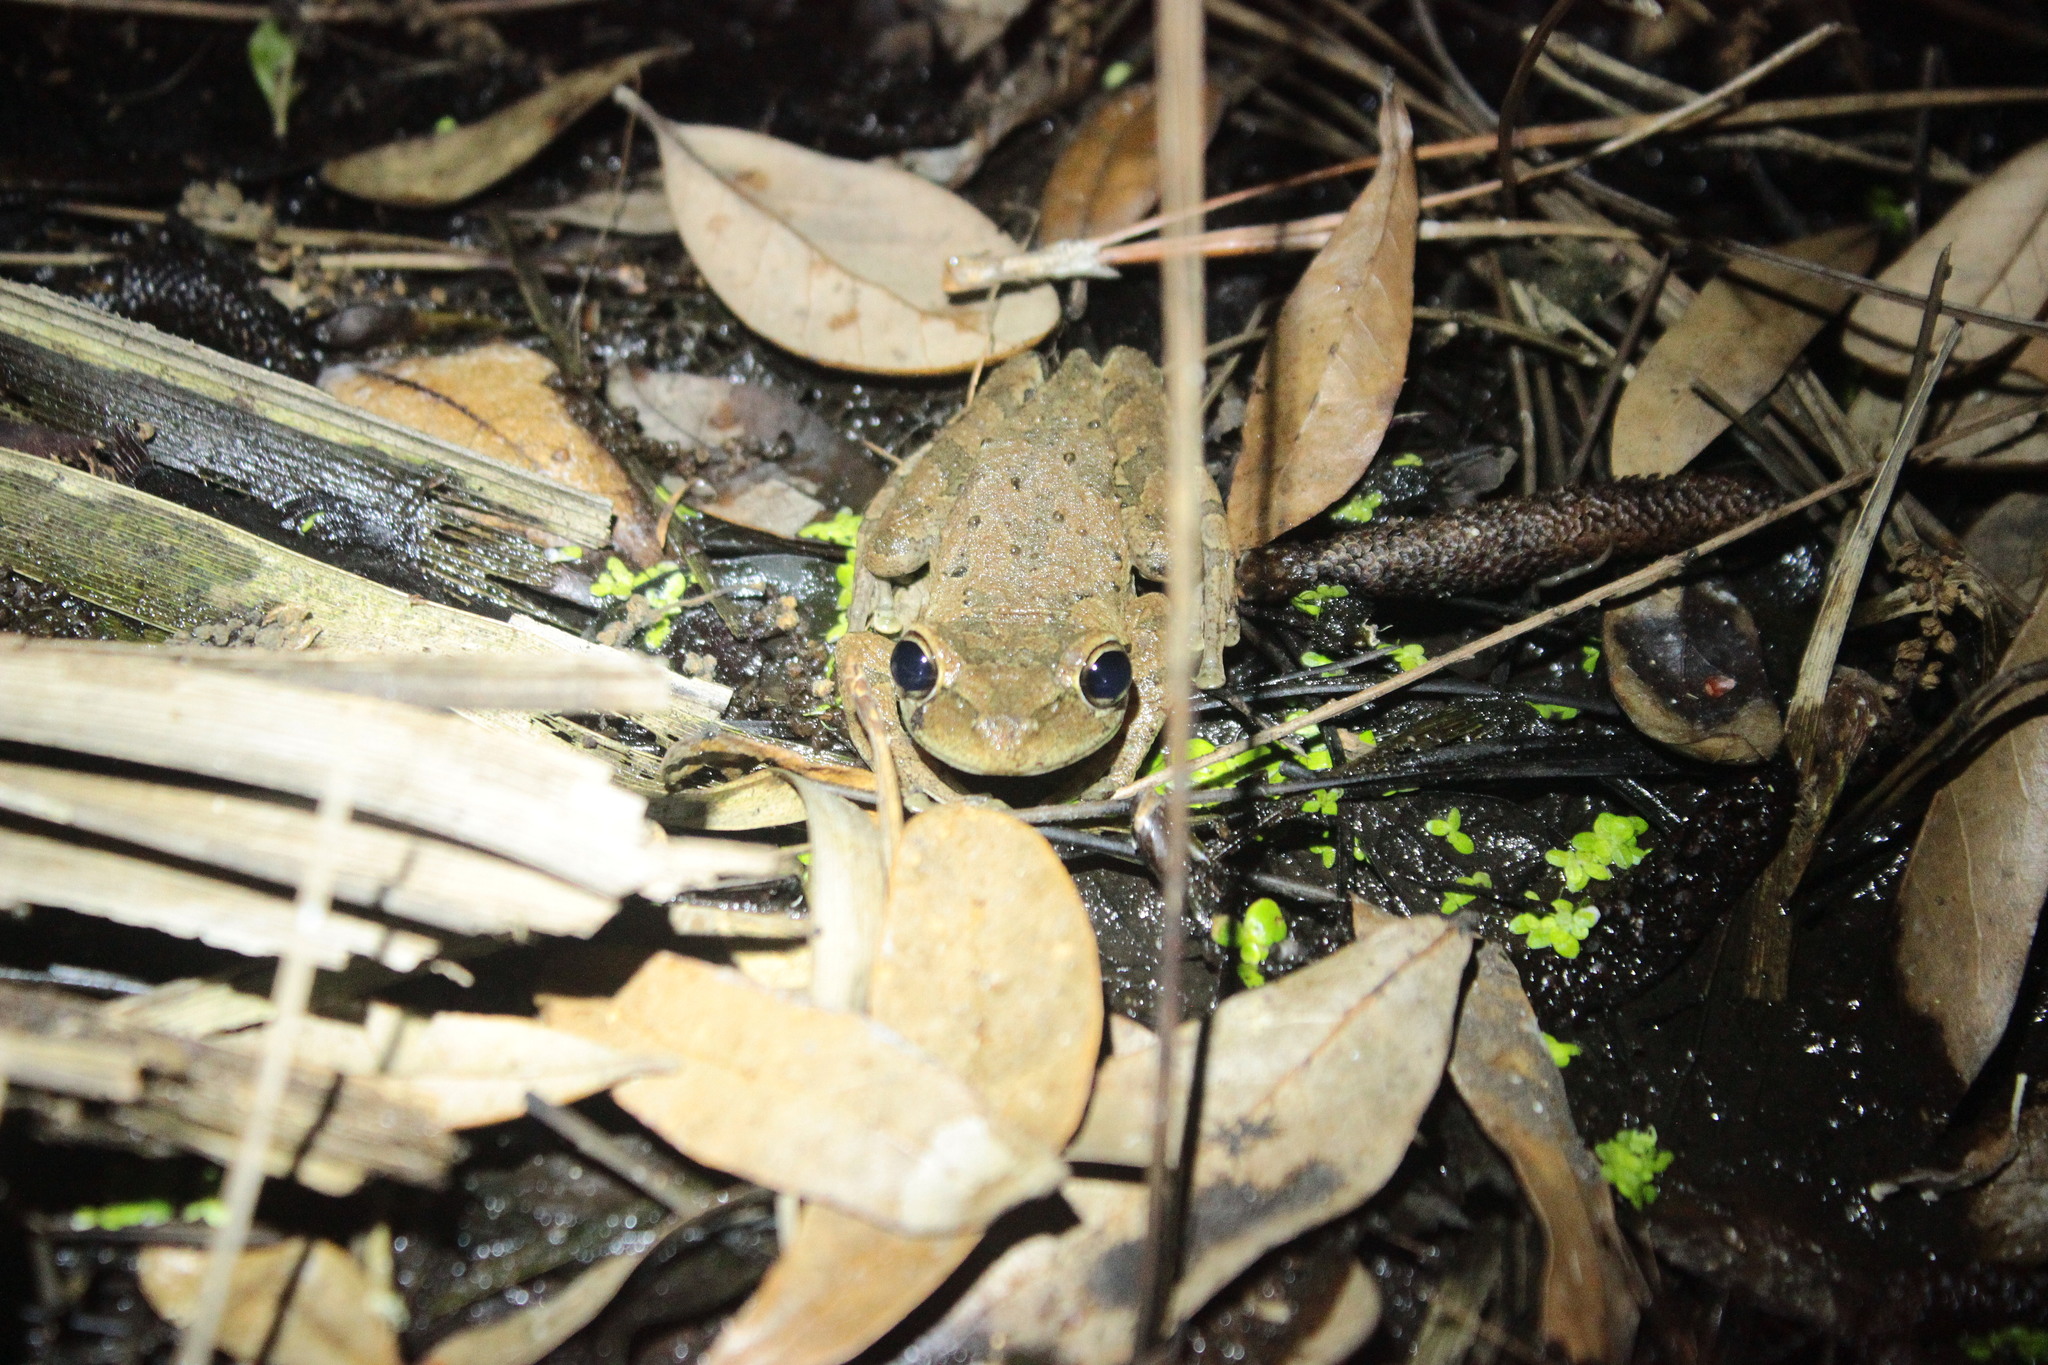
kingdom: Animalia
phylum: Chordata
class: Amphibia
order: Anura
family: Hylidae
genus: Osteopilus
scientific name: Osteopilus septentrionalis
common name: Cuban treefrog
